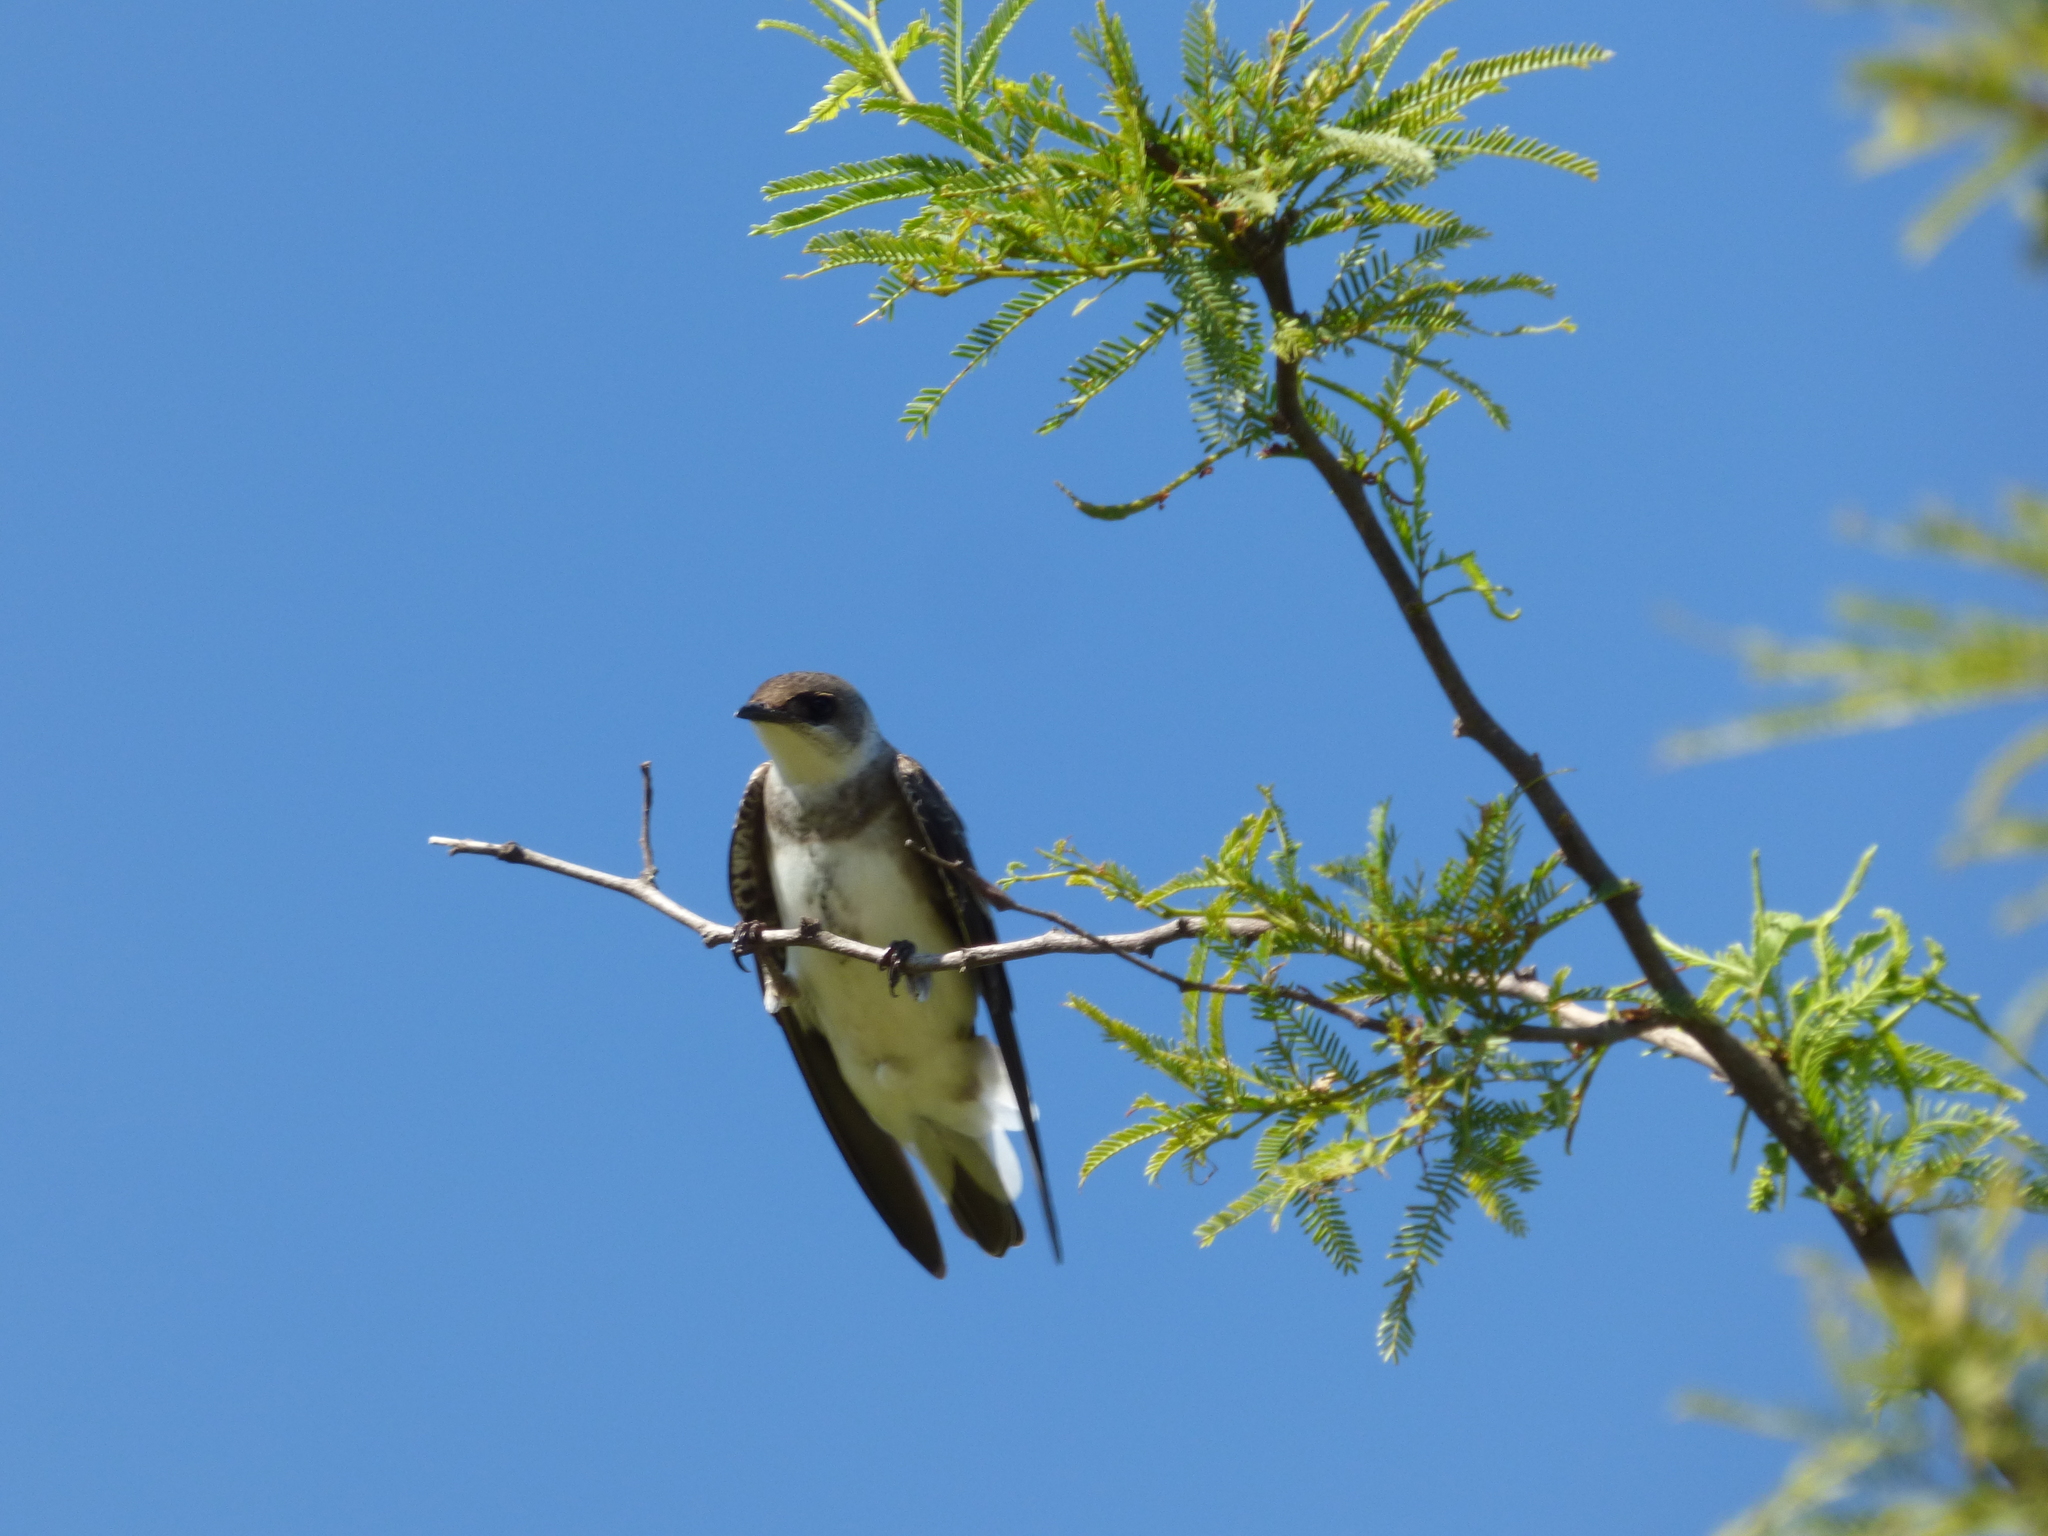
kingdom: Animalia
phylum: Chordata
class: Aves
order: Passeriformes
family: Hirundinidae
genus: Progne
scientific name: Progne tapera
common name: Brown-chested martin
